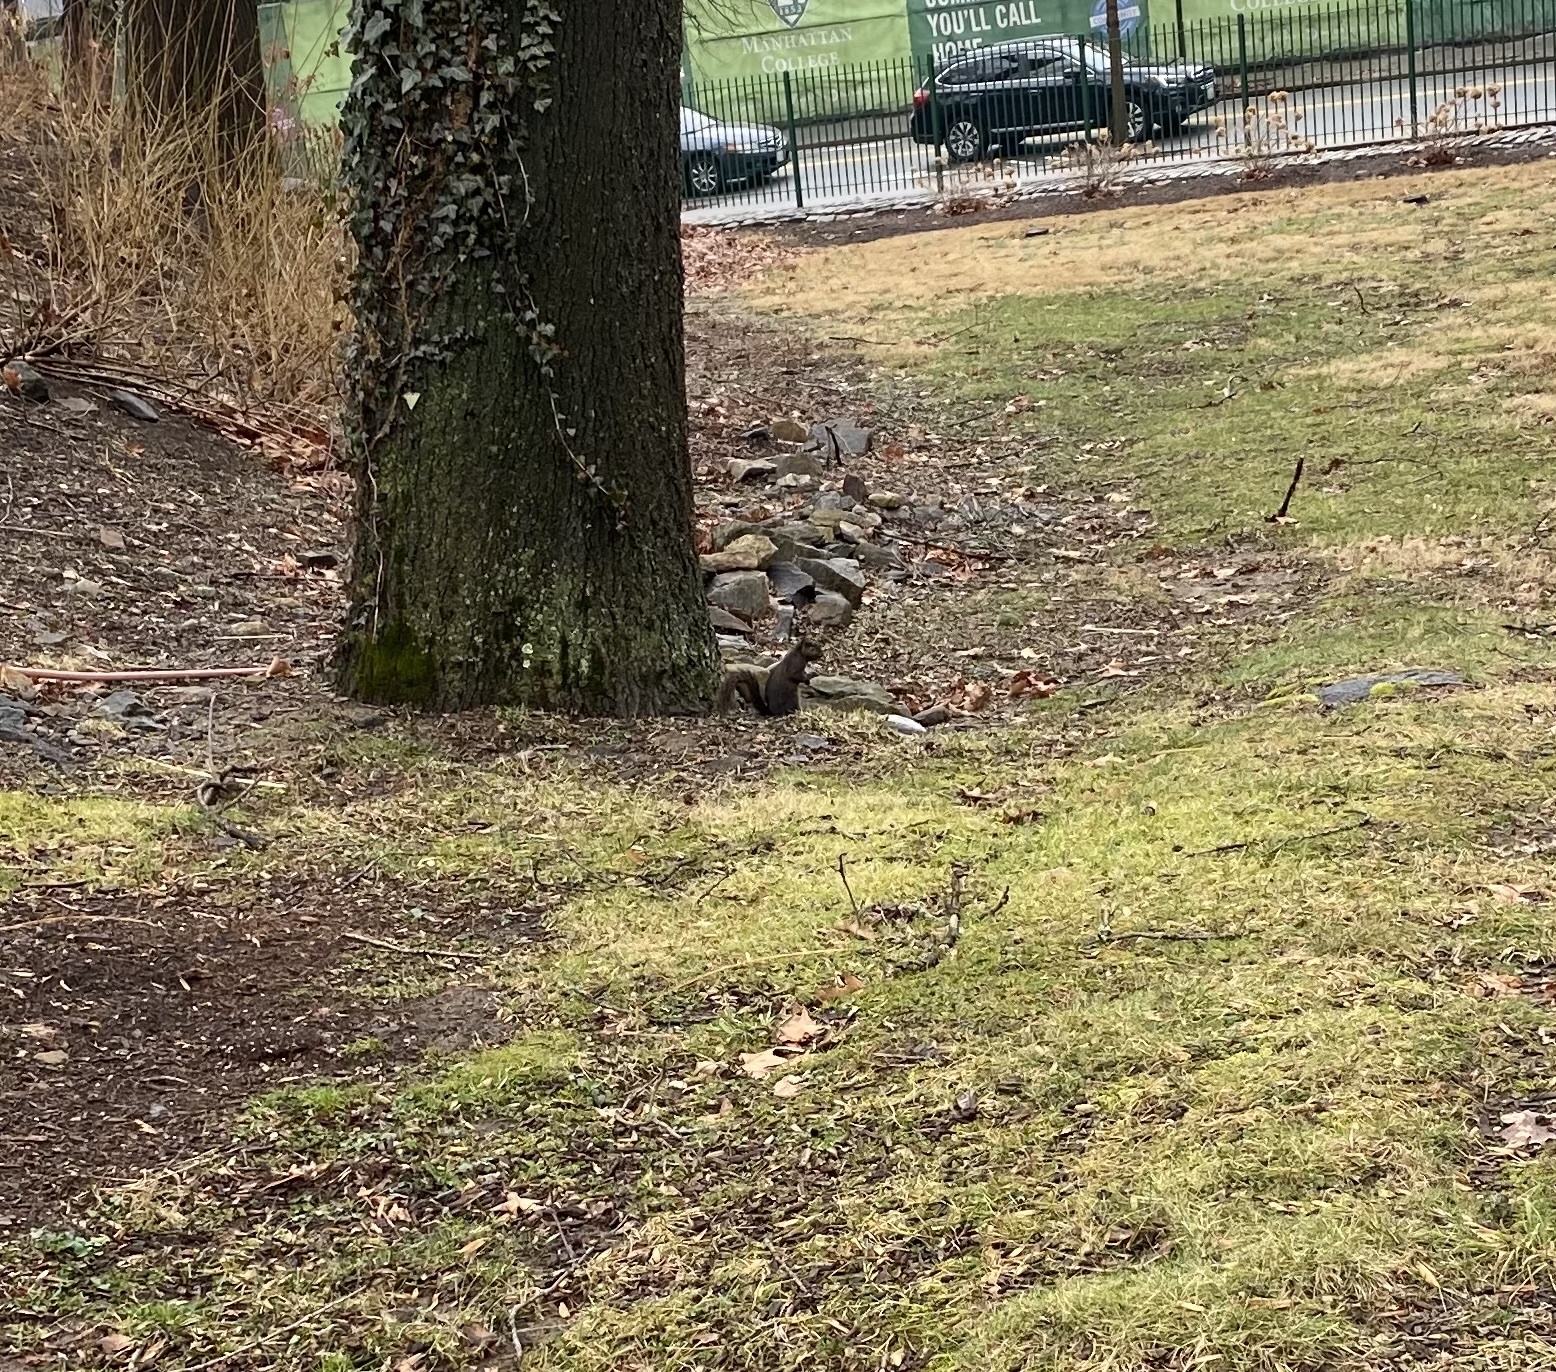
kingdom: Animalia
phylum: Chordata
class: Mammalia
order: Rodentia
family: Sciuridae
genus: Sciurus
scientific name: Sciurus carolinensis
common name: Eastern gray squirrel
